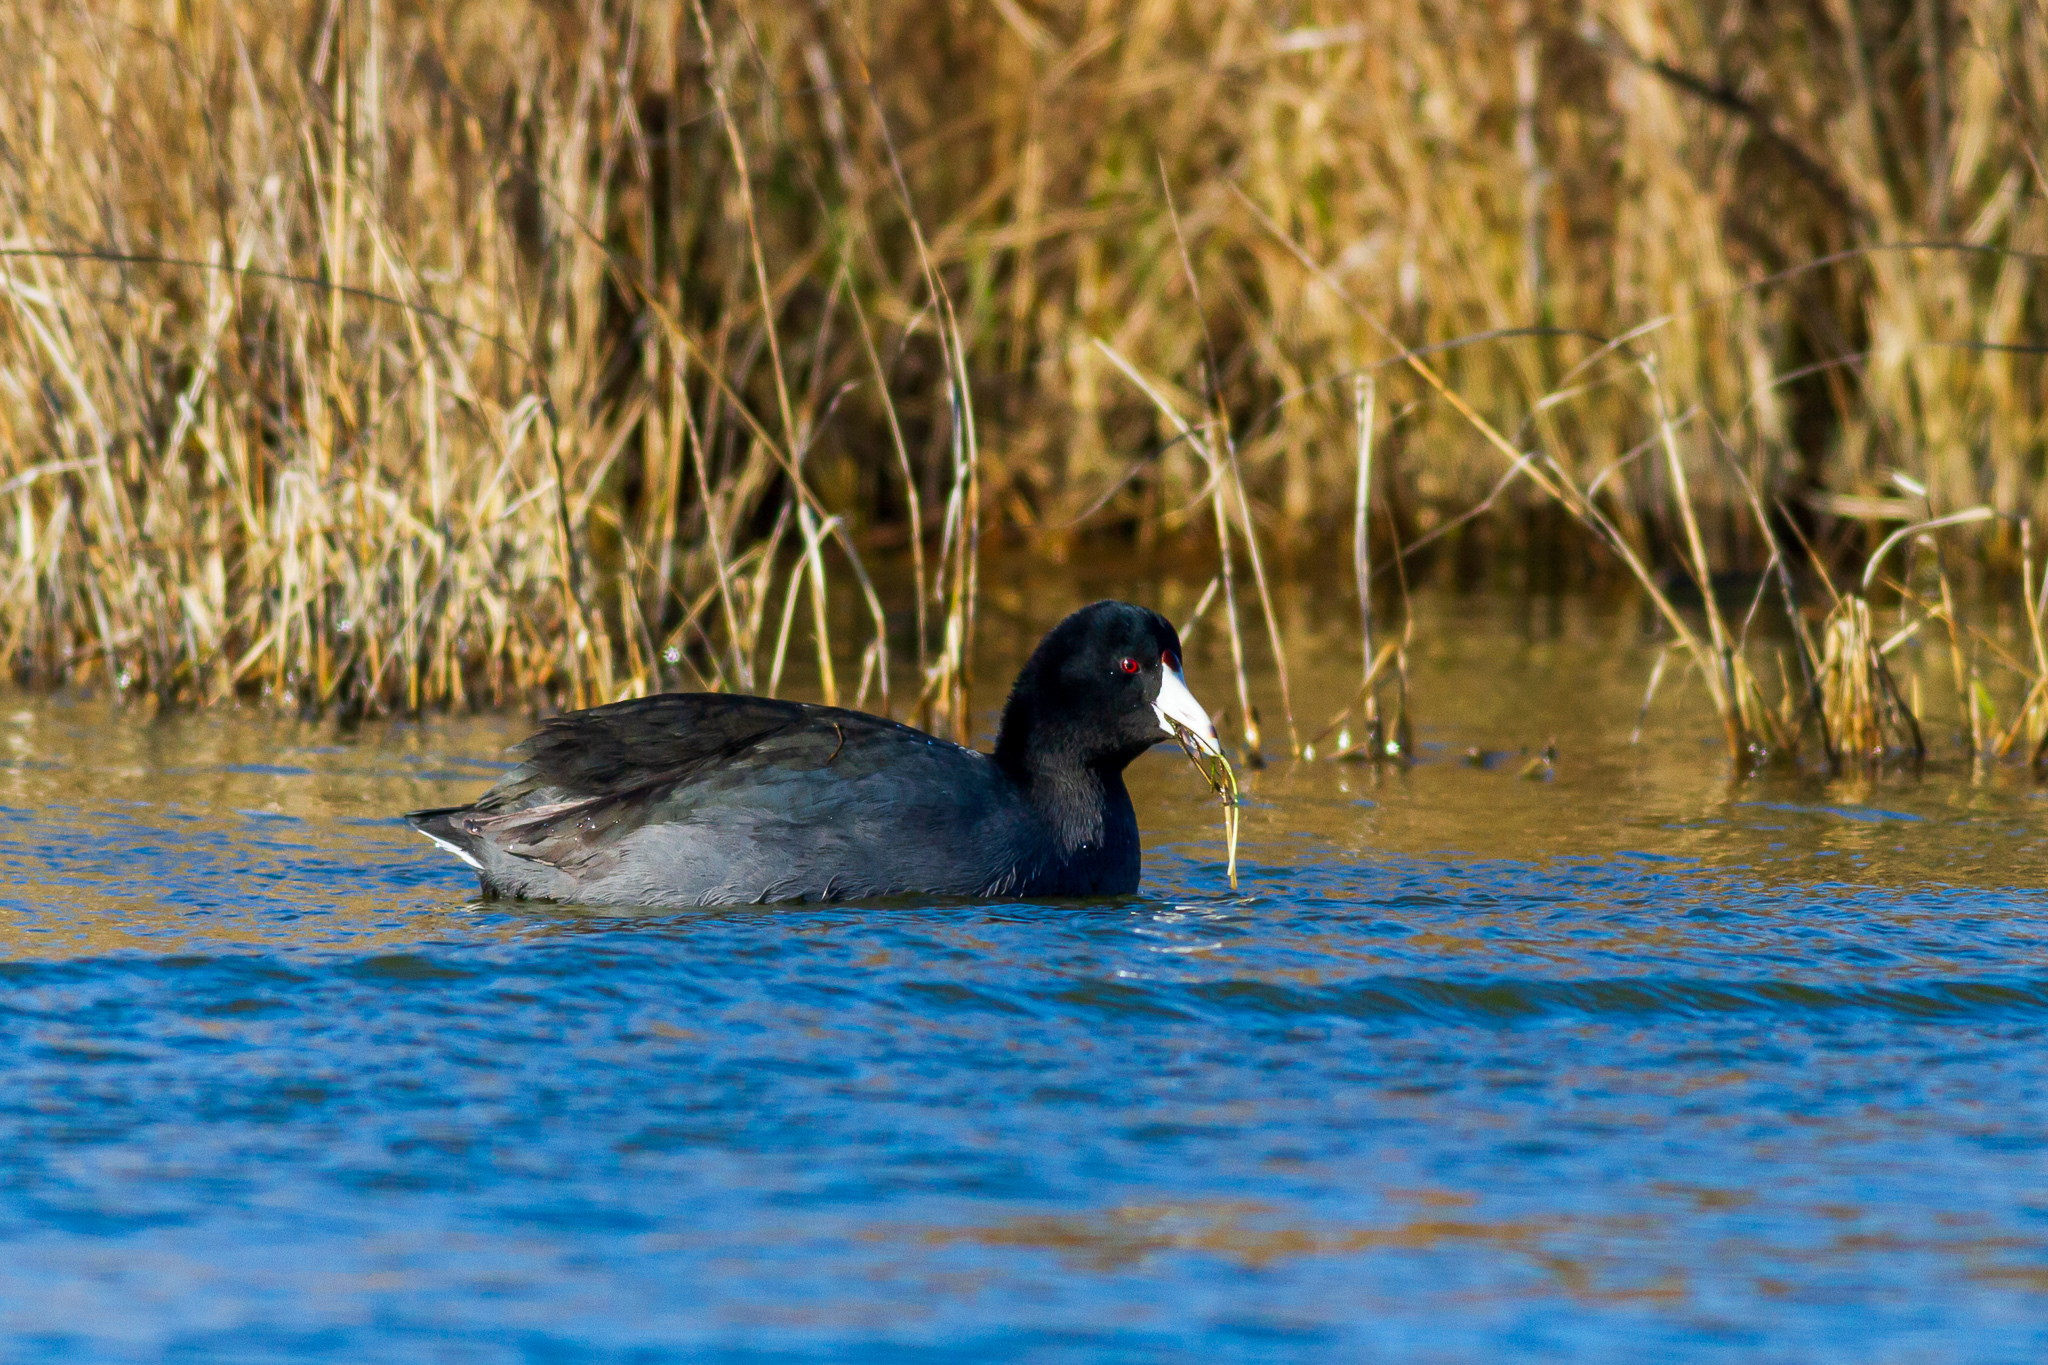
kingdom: Animalia
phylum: Chordata
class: Aves
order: Gruiformes
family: Rallidae
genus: Fulica
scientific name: Fulica americana
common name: American coot
